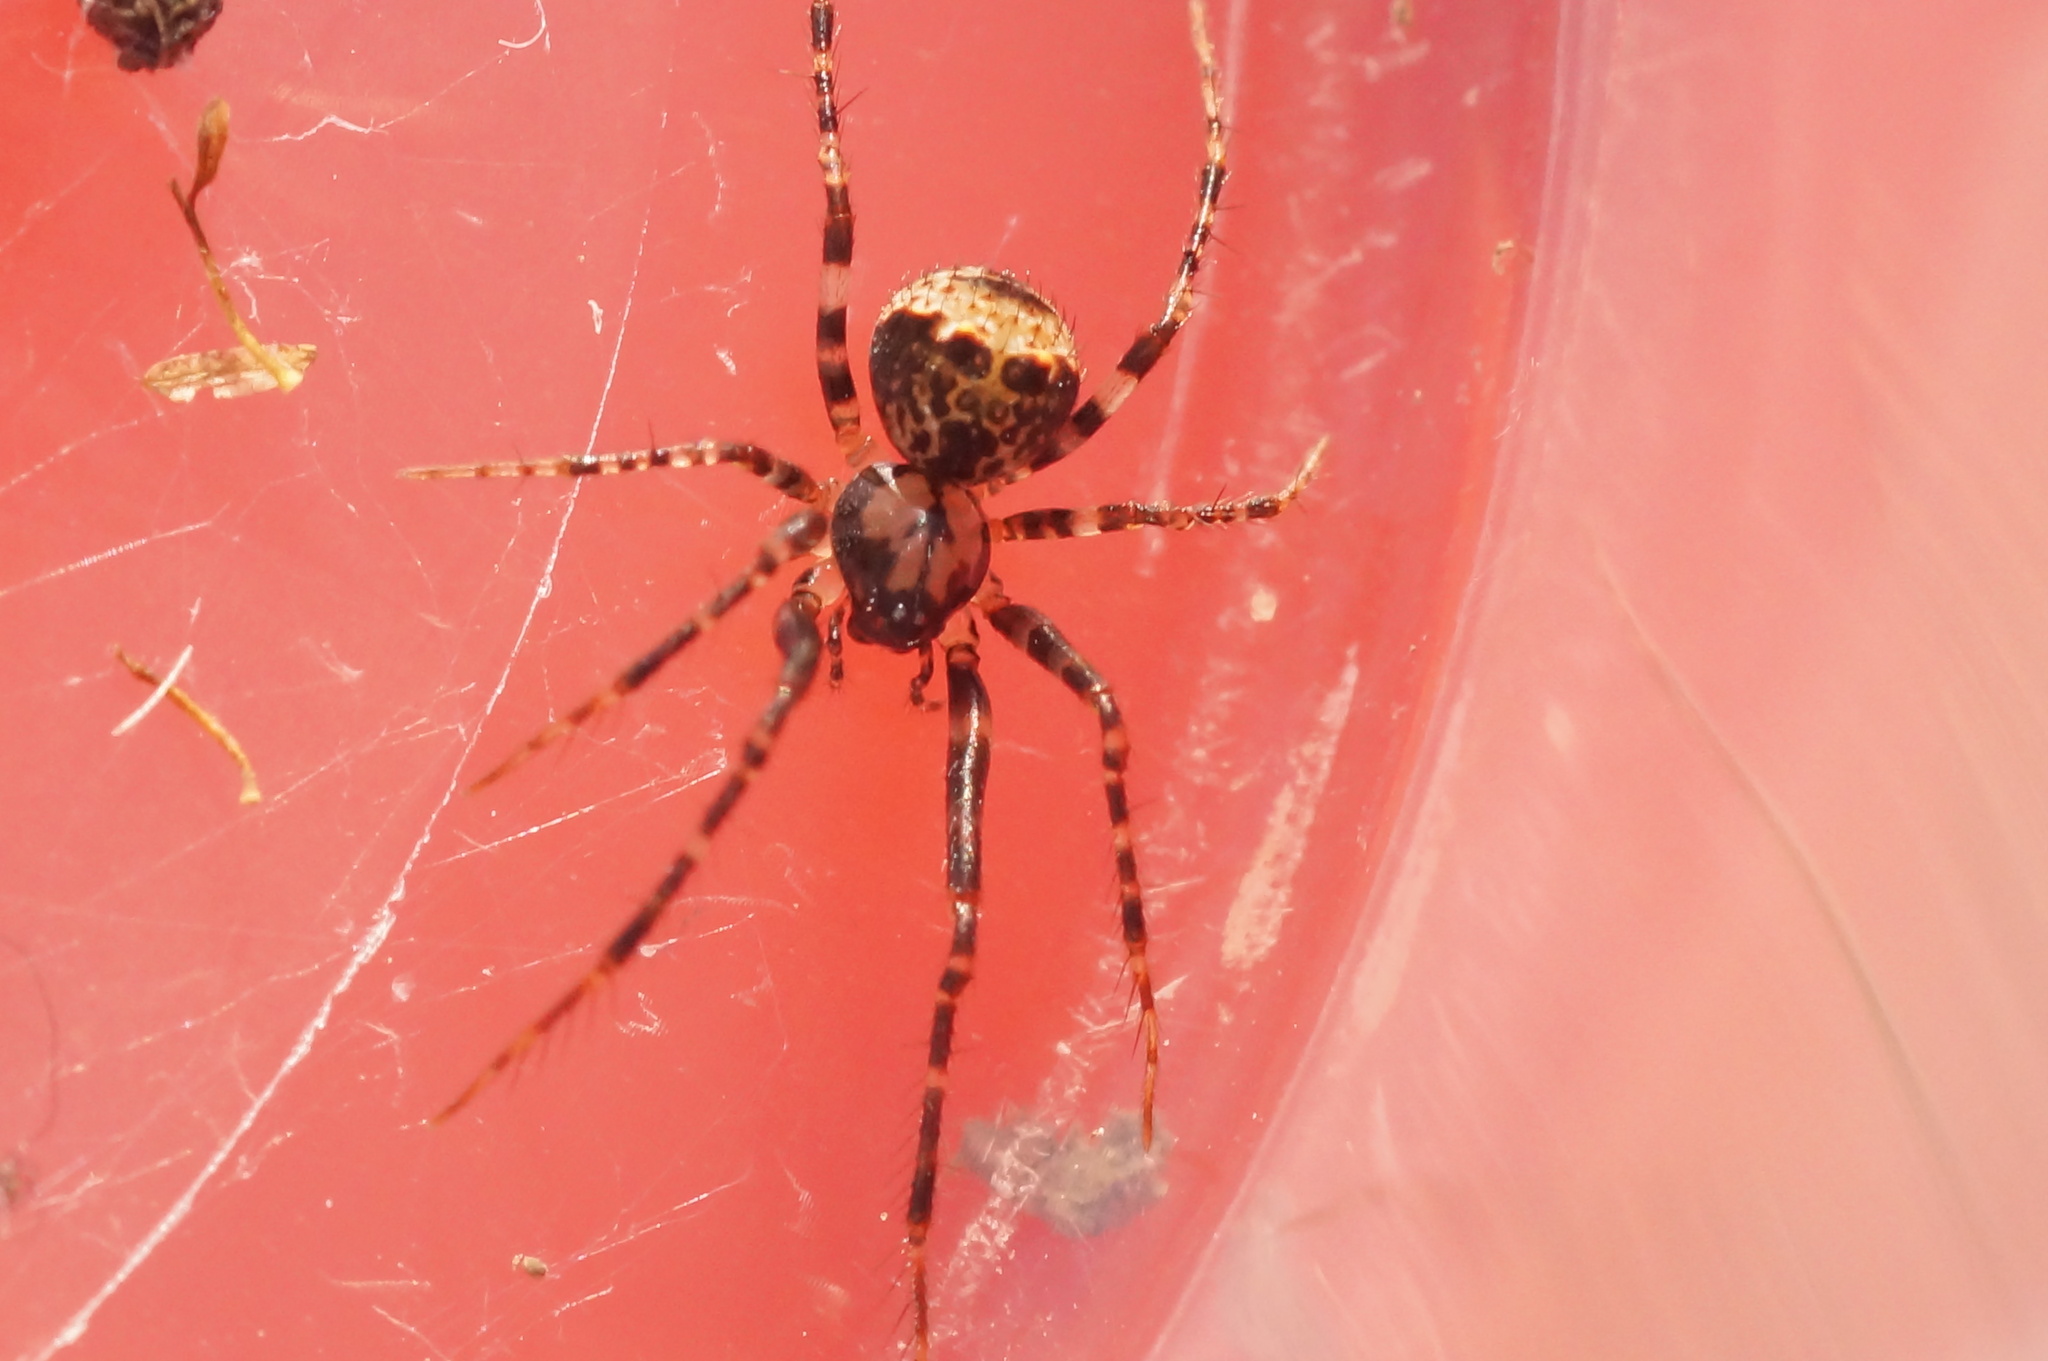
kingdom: Animalia
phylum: Arthropoda
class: Arachnida
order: Araneae
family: Mimetidae
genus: Ero
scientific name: Ero
